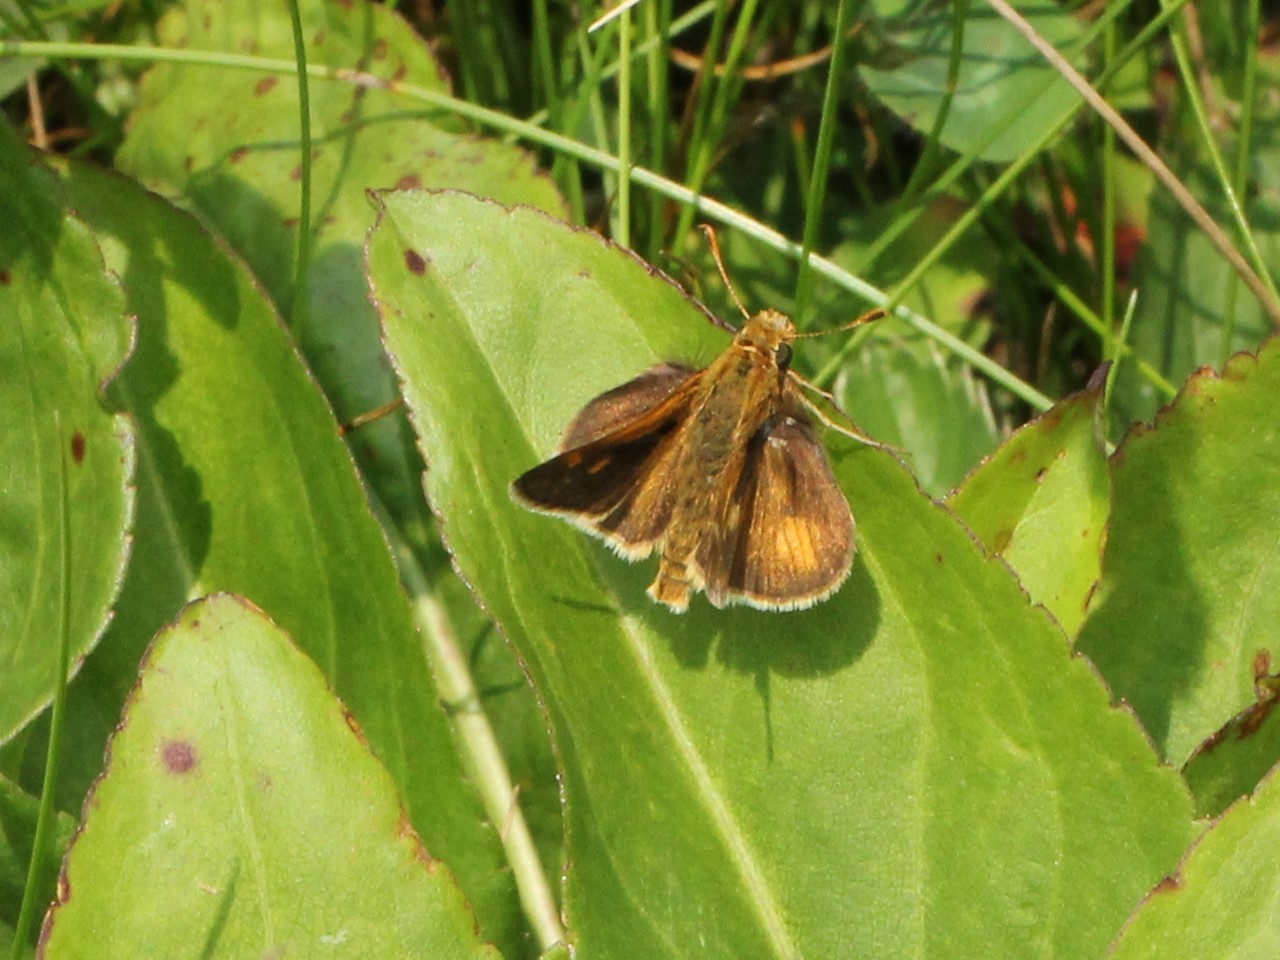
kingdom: Animalia
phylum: Arthropoda
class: Insecta
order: Lepidoptera
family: Hesperiidae
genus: Polites
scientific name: Polites coras
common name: Peck's skipper
